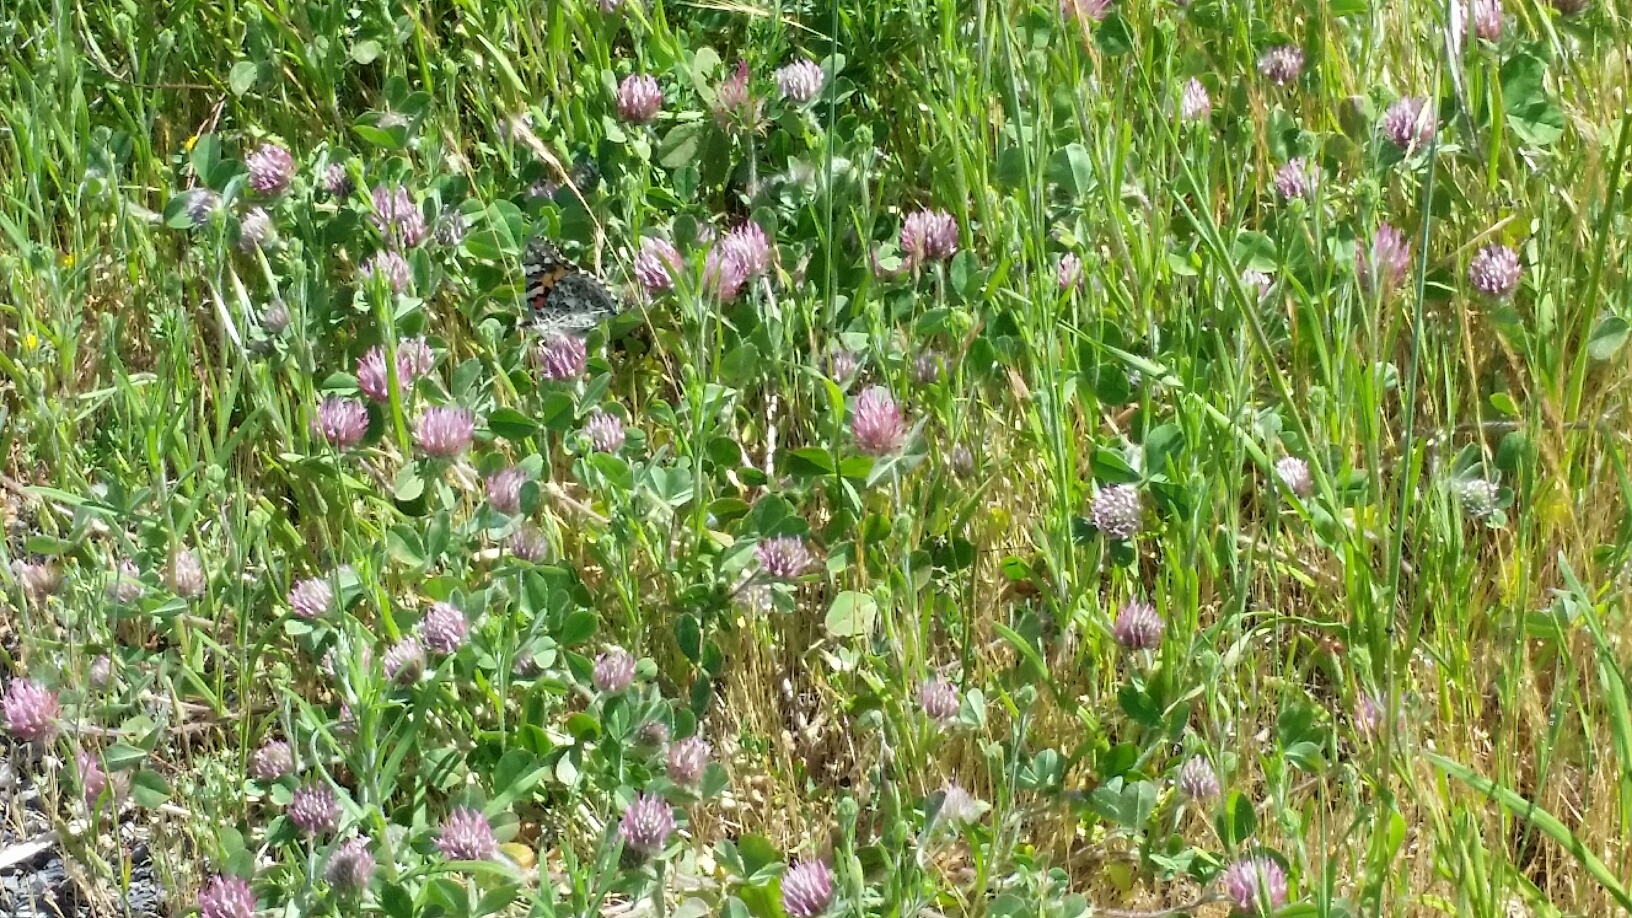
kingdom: Plantae
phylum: Tracheophyta
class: Magnoliopsida
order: Fabales
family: Fabaceae
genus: Trifolium
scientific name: Trifolium hirtum
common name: Rose clover
